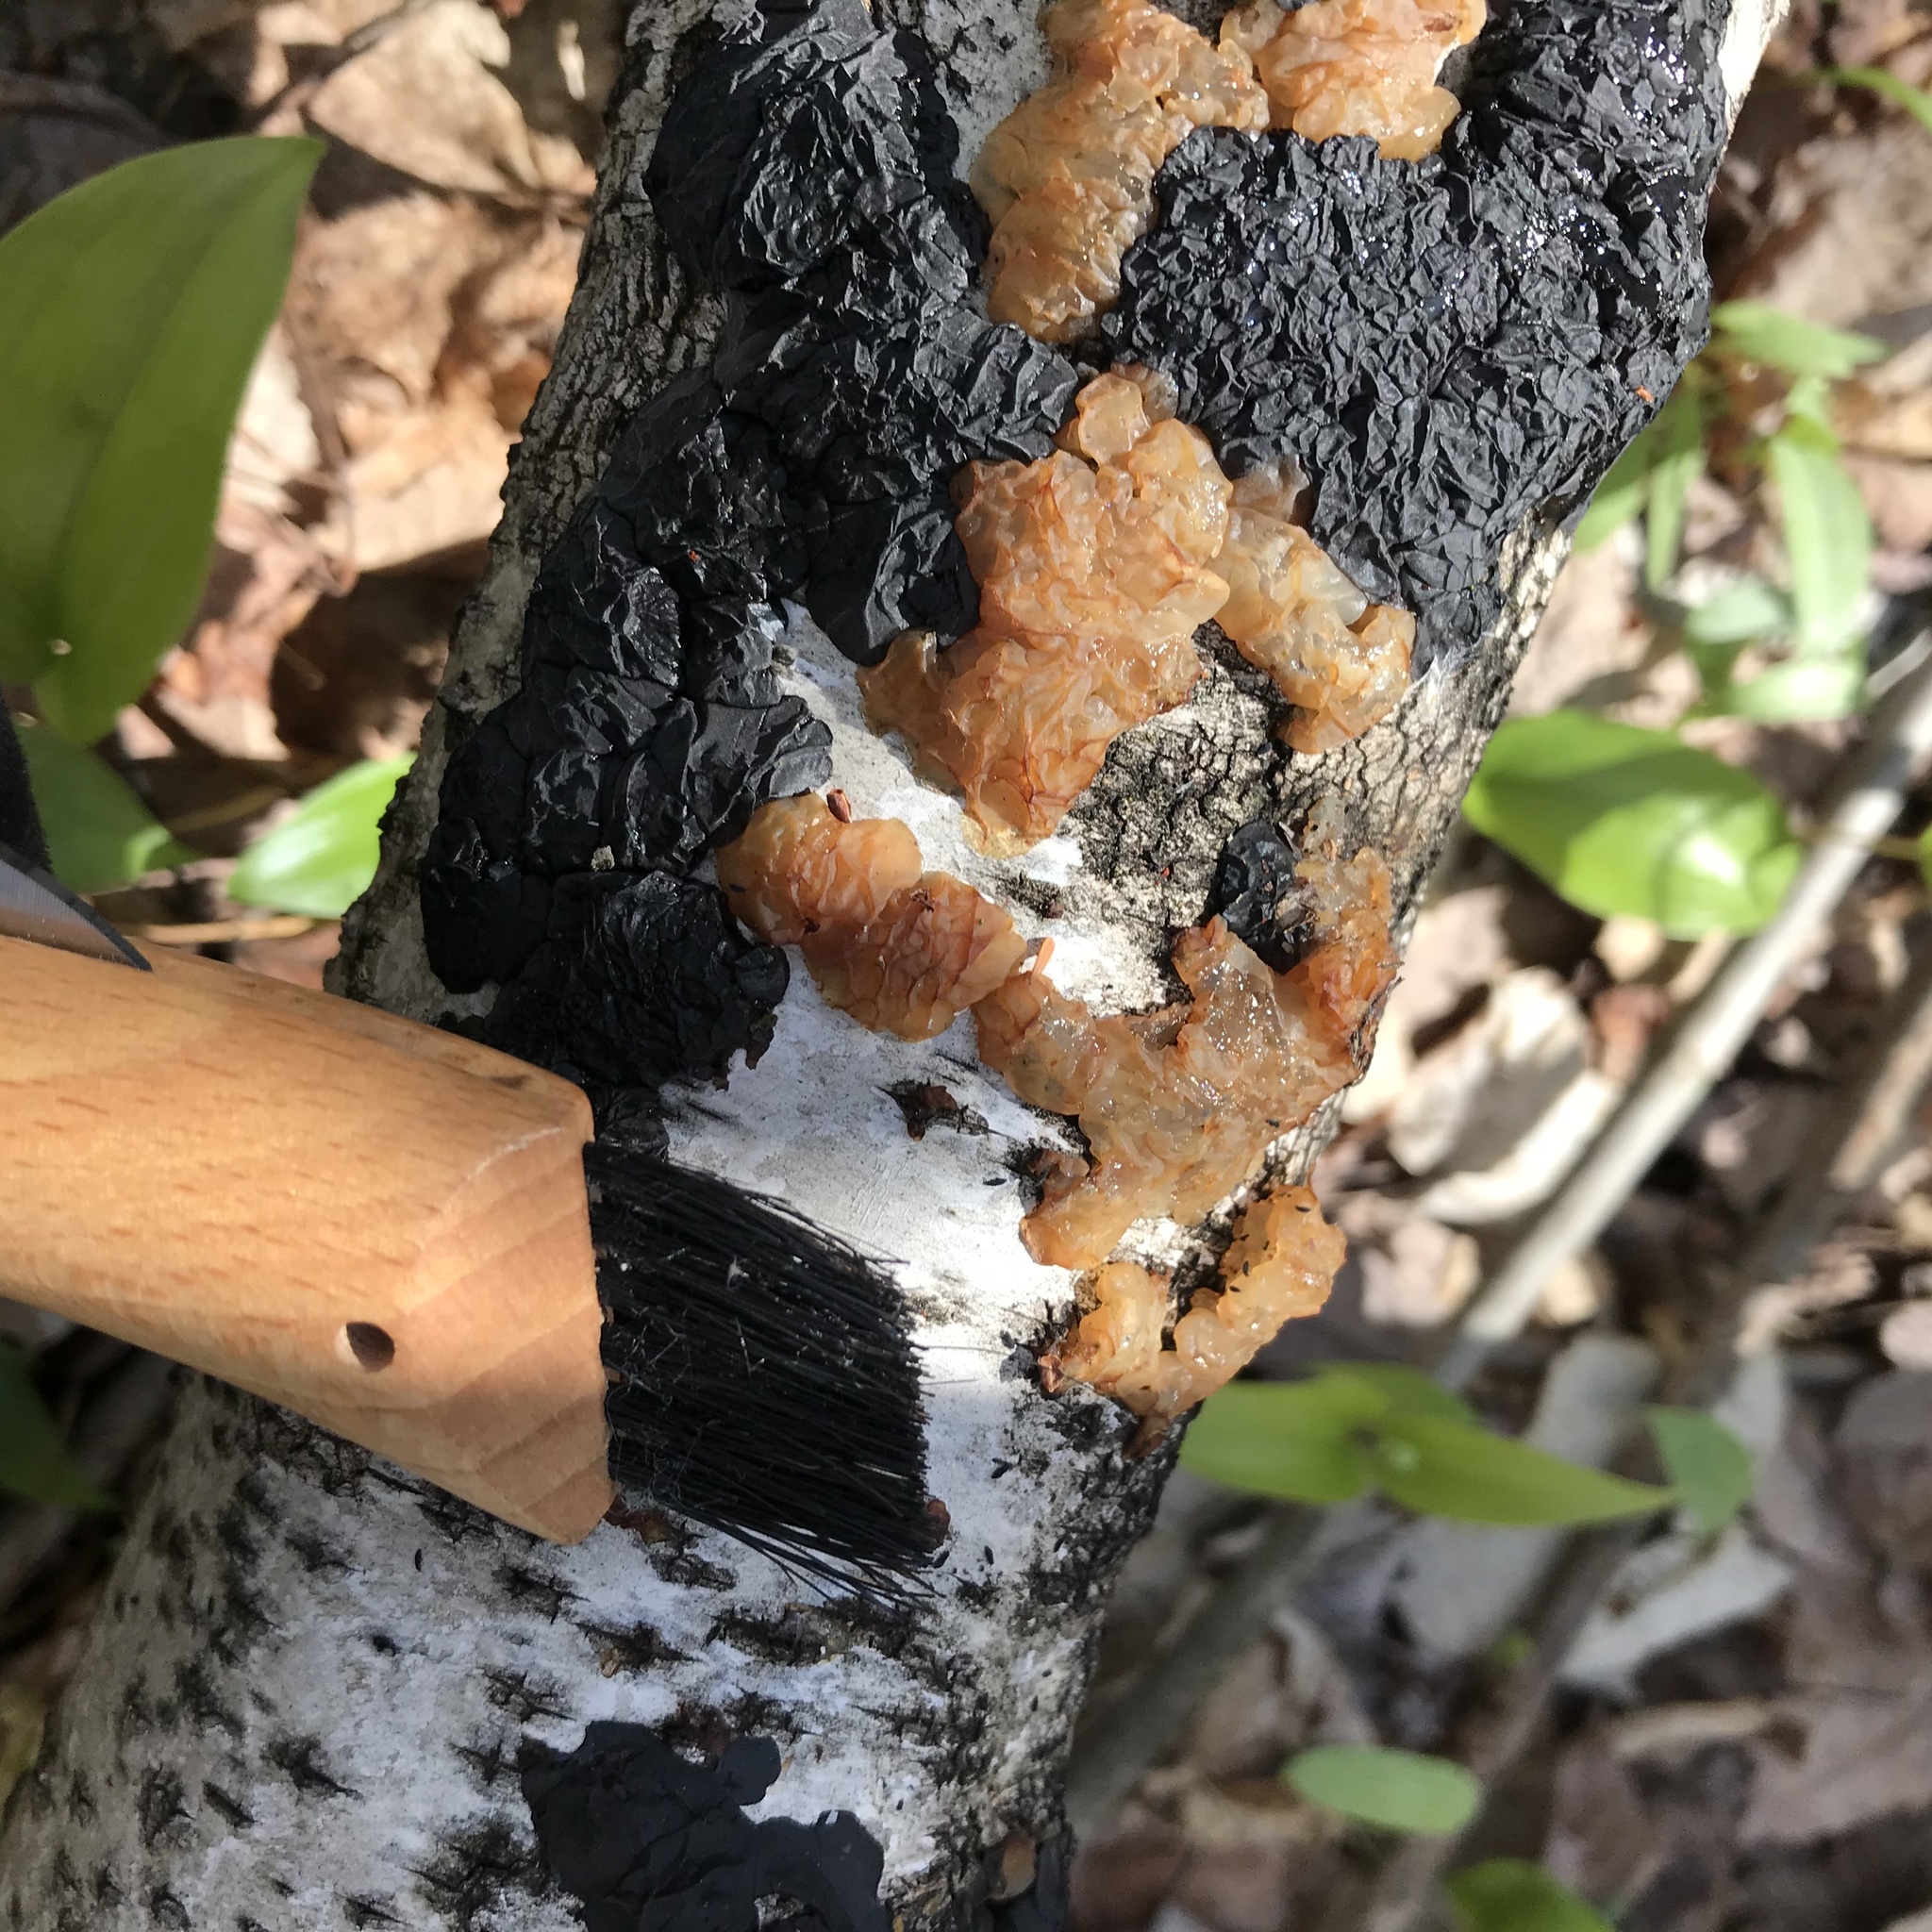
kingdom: Fungi
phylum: Basidiomycota
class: Agaricomycetes
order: Auriculariales
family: Auriculariaceae
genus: Exidia
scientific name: Exidia repanda
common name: Birch jelly
